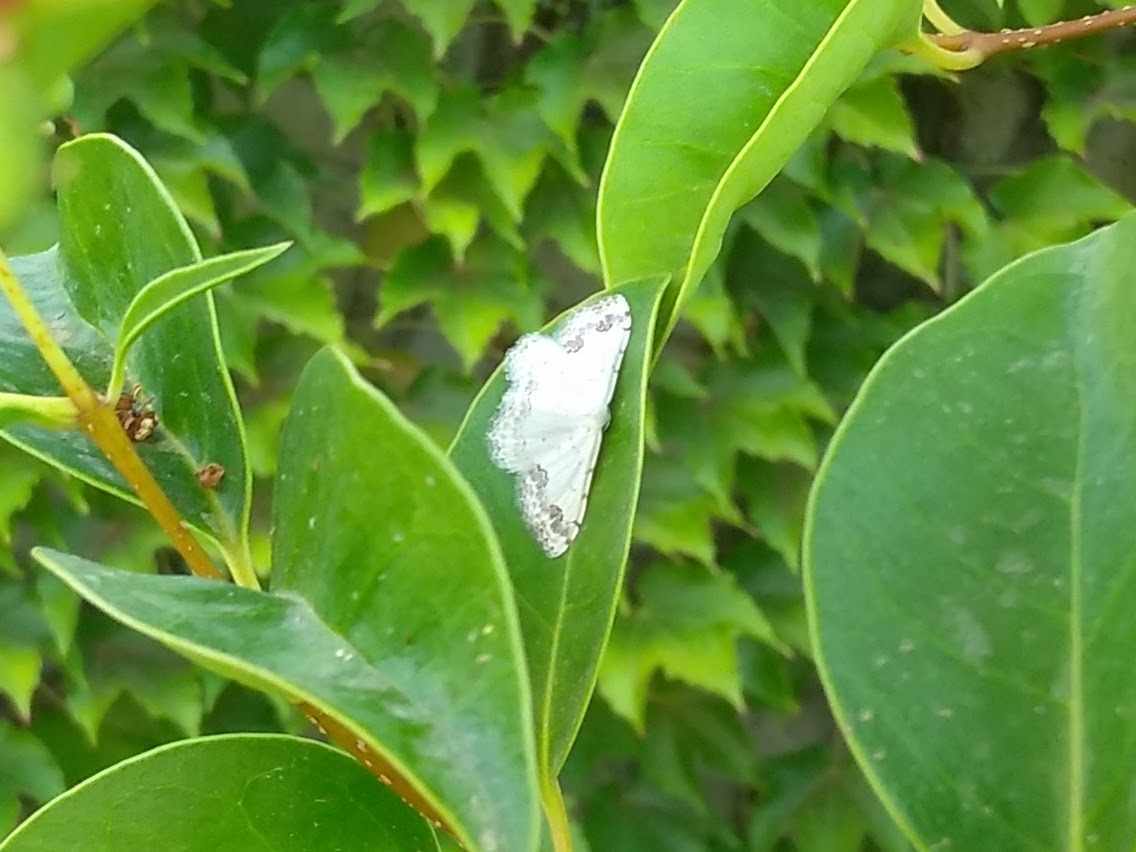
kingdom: Animalia
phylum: Arthropoda
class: Insecta
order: Lepidoptera
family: Geometridae
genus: Scopula
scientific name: Scopula decorata
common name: Middle lace border
